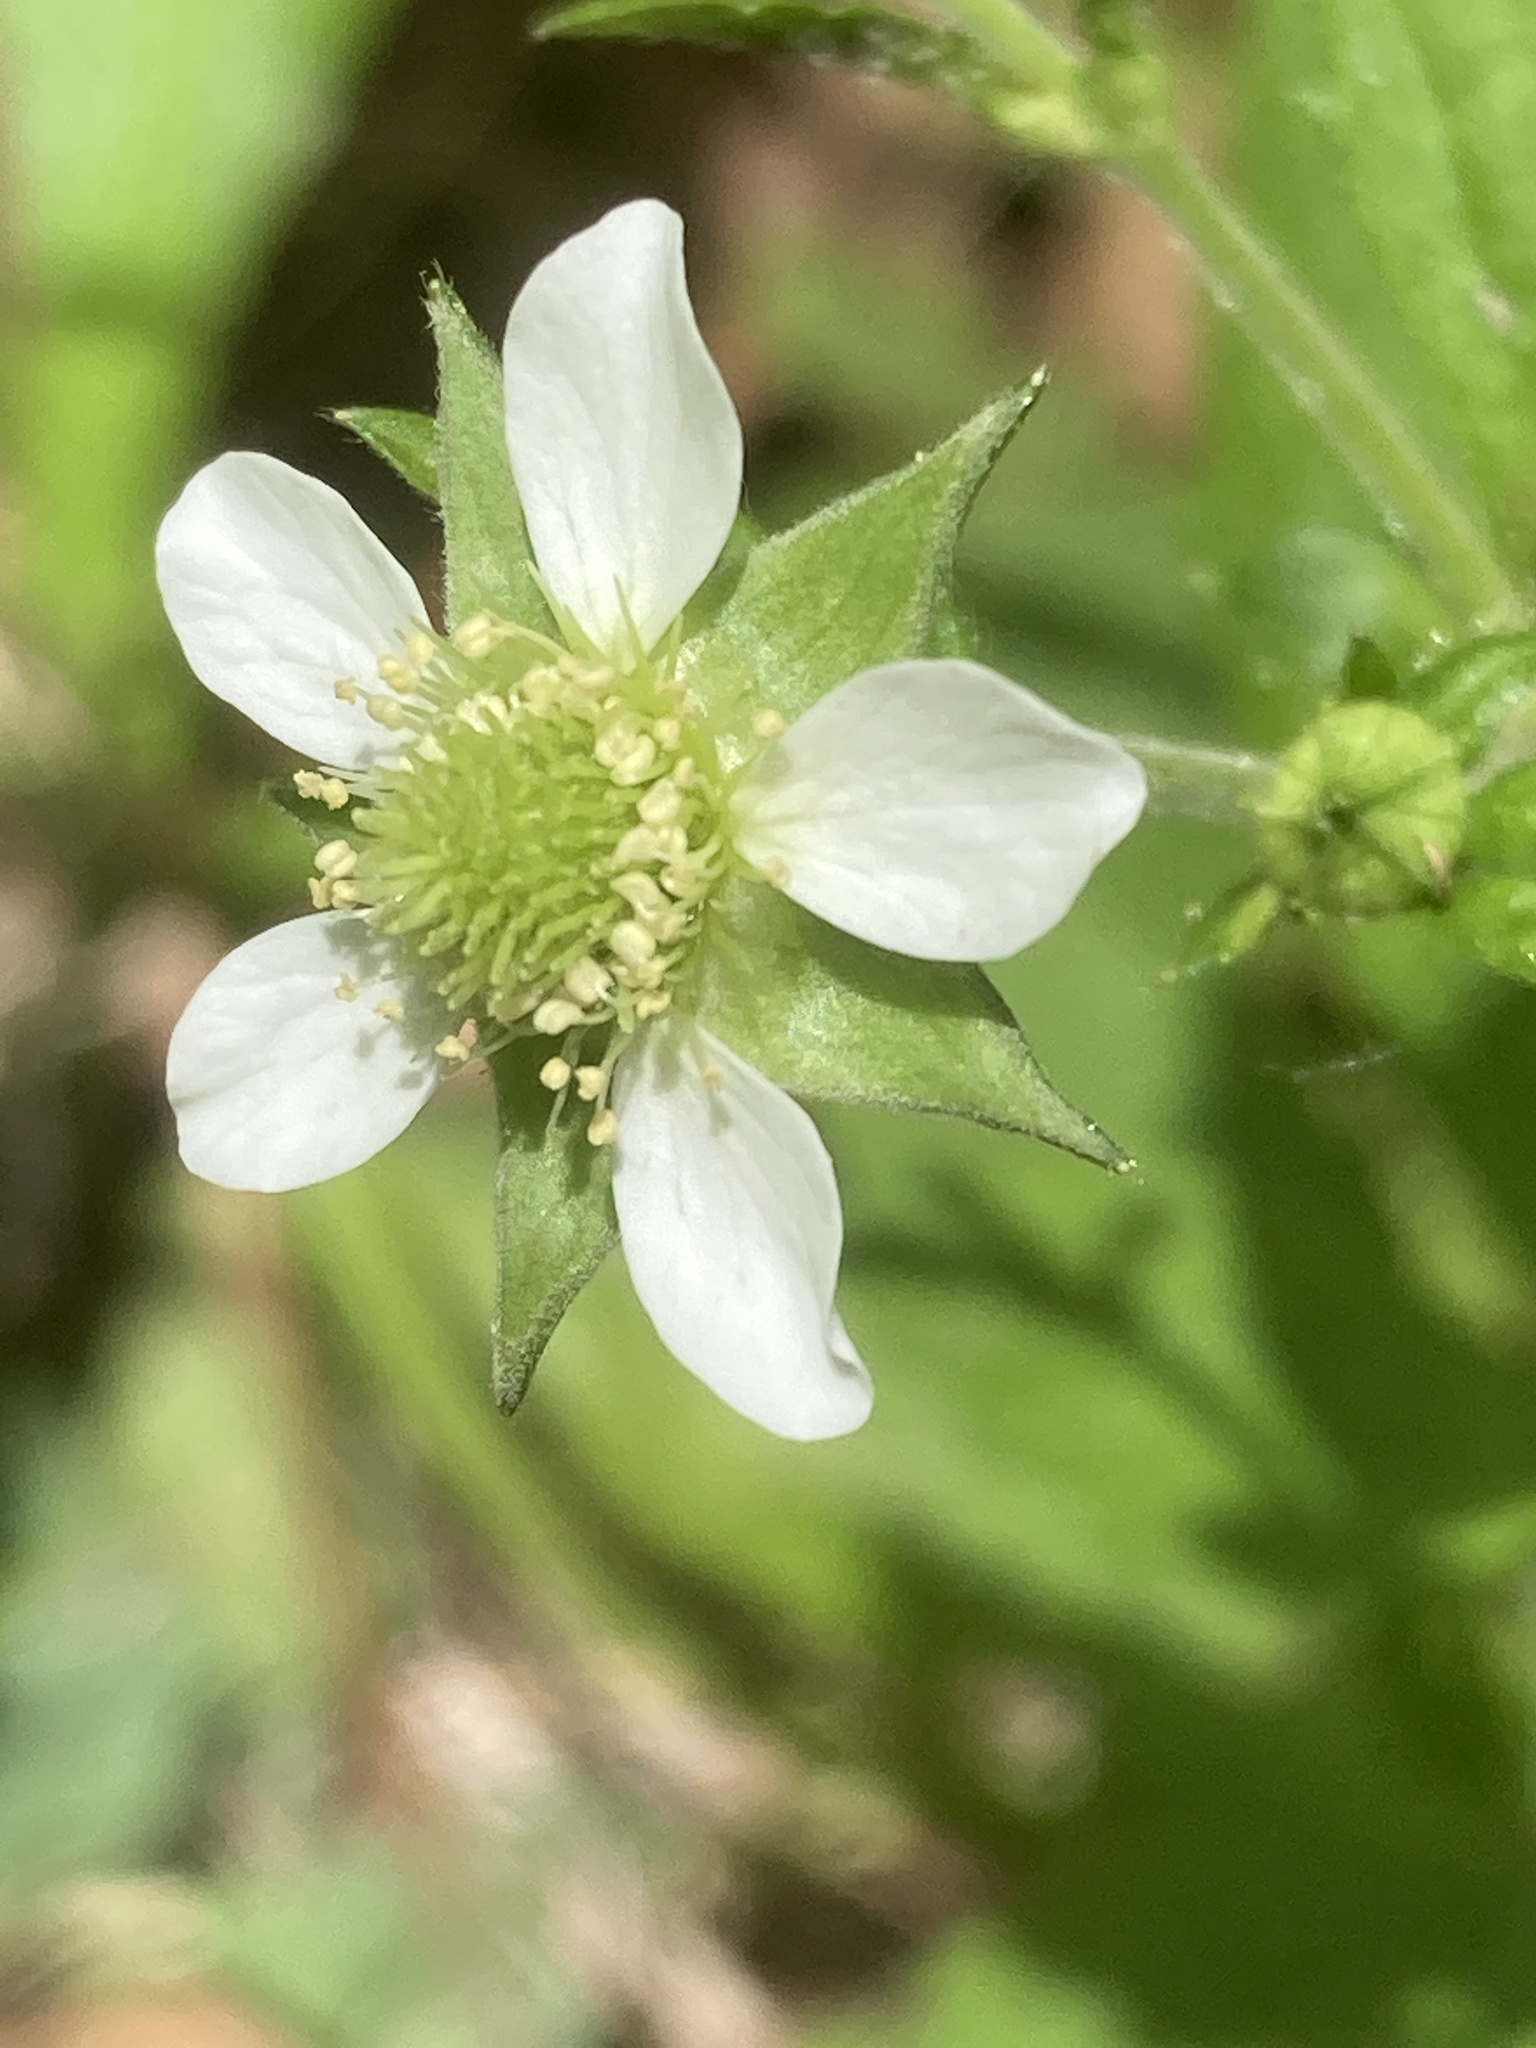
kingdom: Plantae
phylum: Tracheophyta
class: Magnoliopsida
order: Rosales
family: Rosaceae
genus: Geum
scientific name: Geum canadense
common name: White avens
